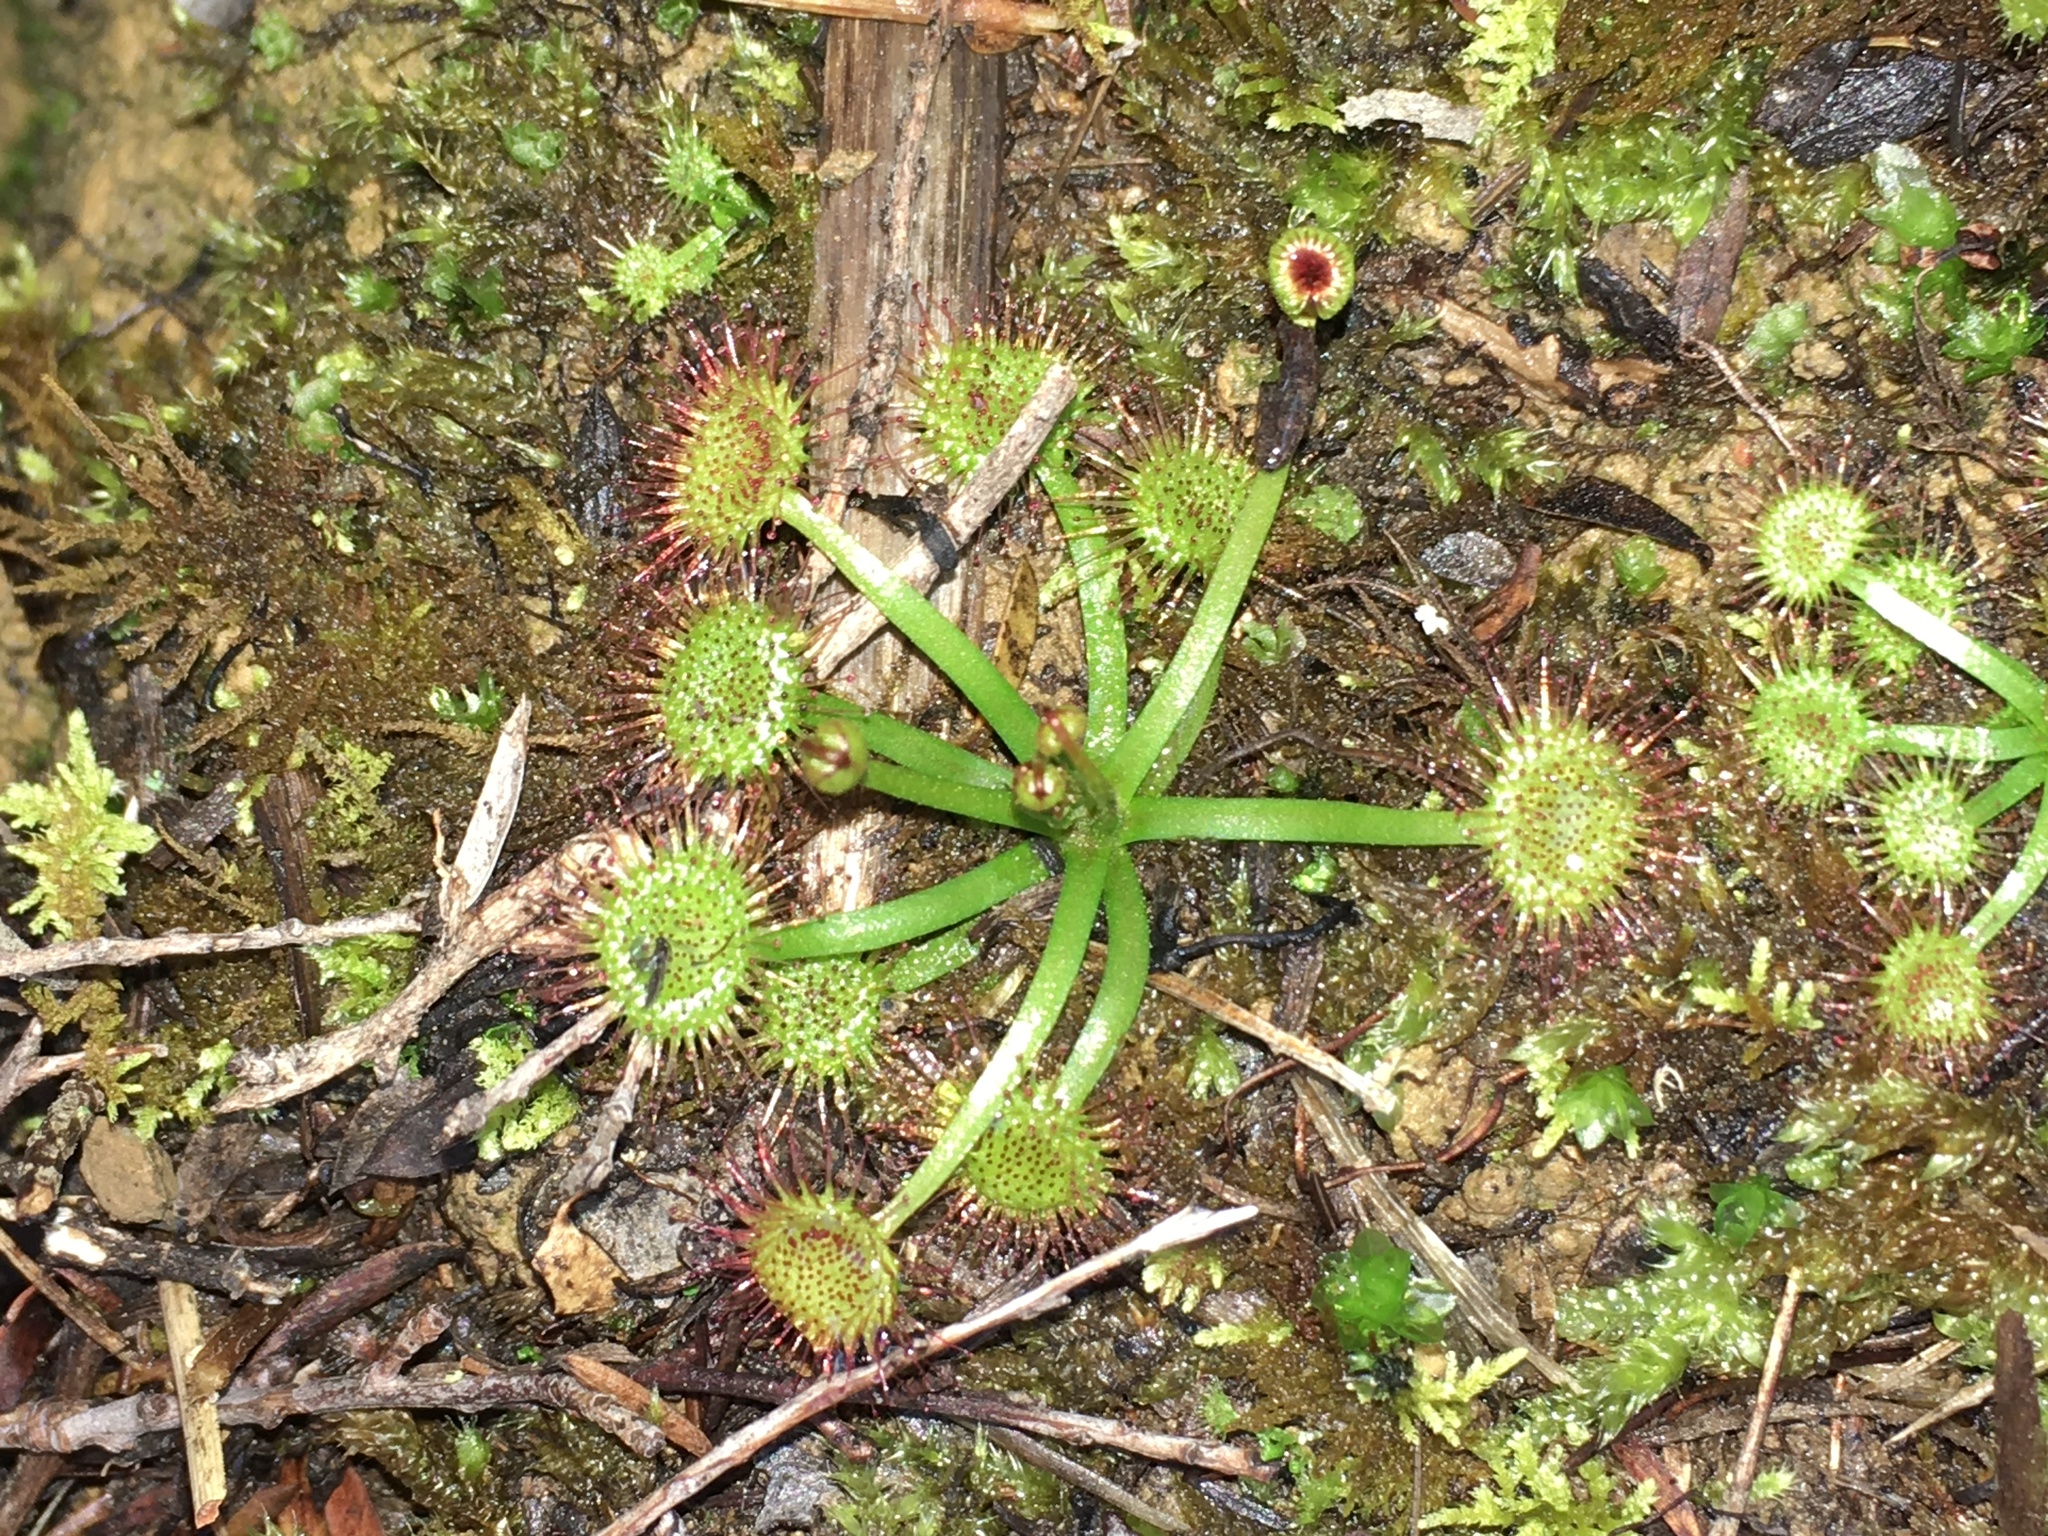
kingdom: Plantae
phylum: Tracheophyta
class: Magnoliopsida
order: Caryophyllales
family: Droseraceae
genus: Drosera
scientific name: Drosera peltata
